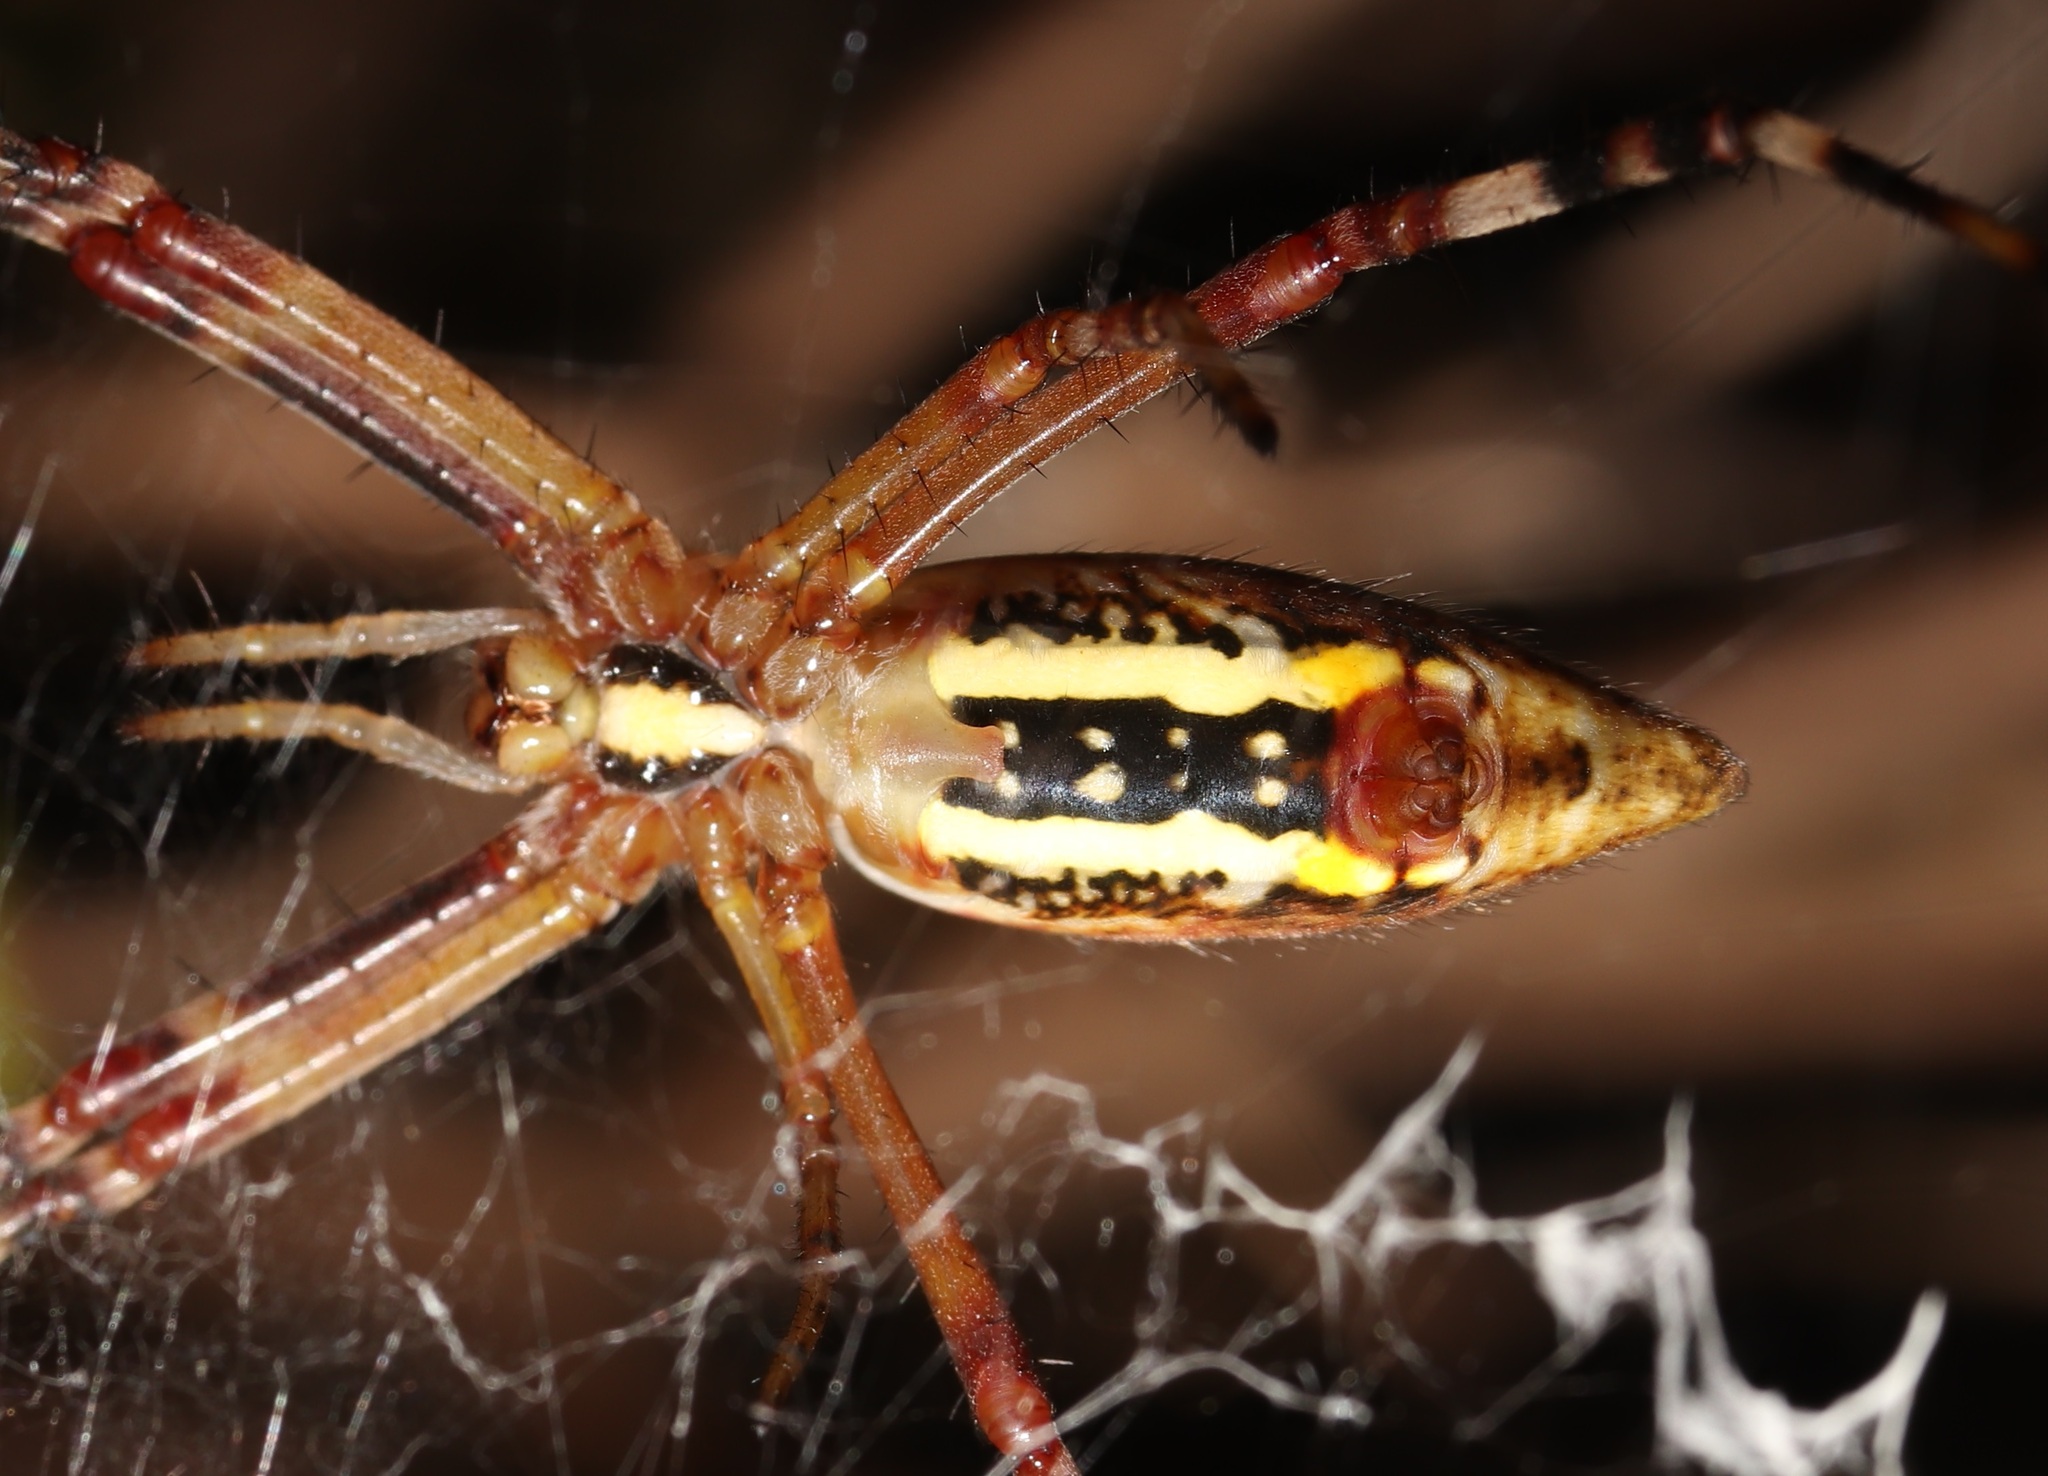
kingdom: Animalia
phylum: Arthropoda
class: Arachnida
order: Araneae
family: Araneidae
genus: Argiope
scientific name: Argiope bruennichi
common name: Wasp spider
